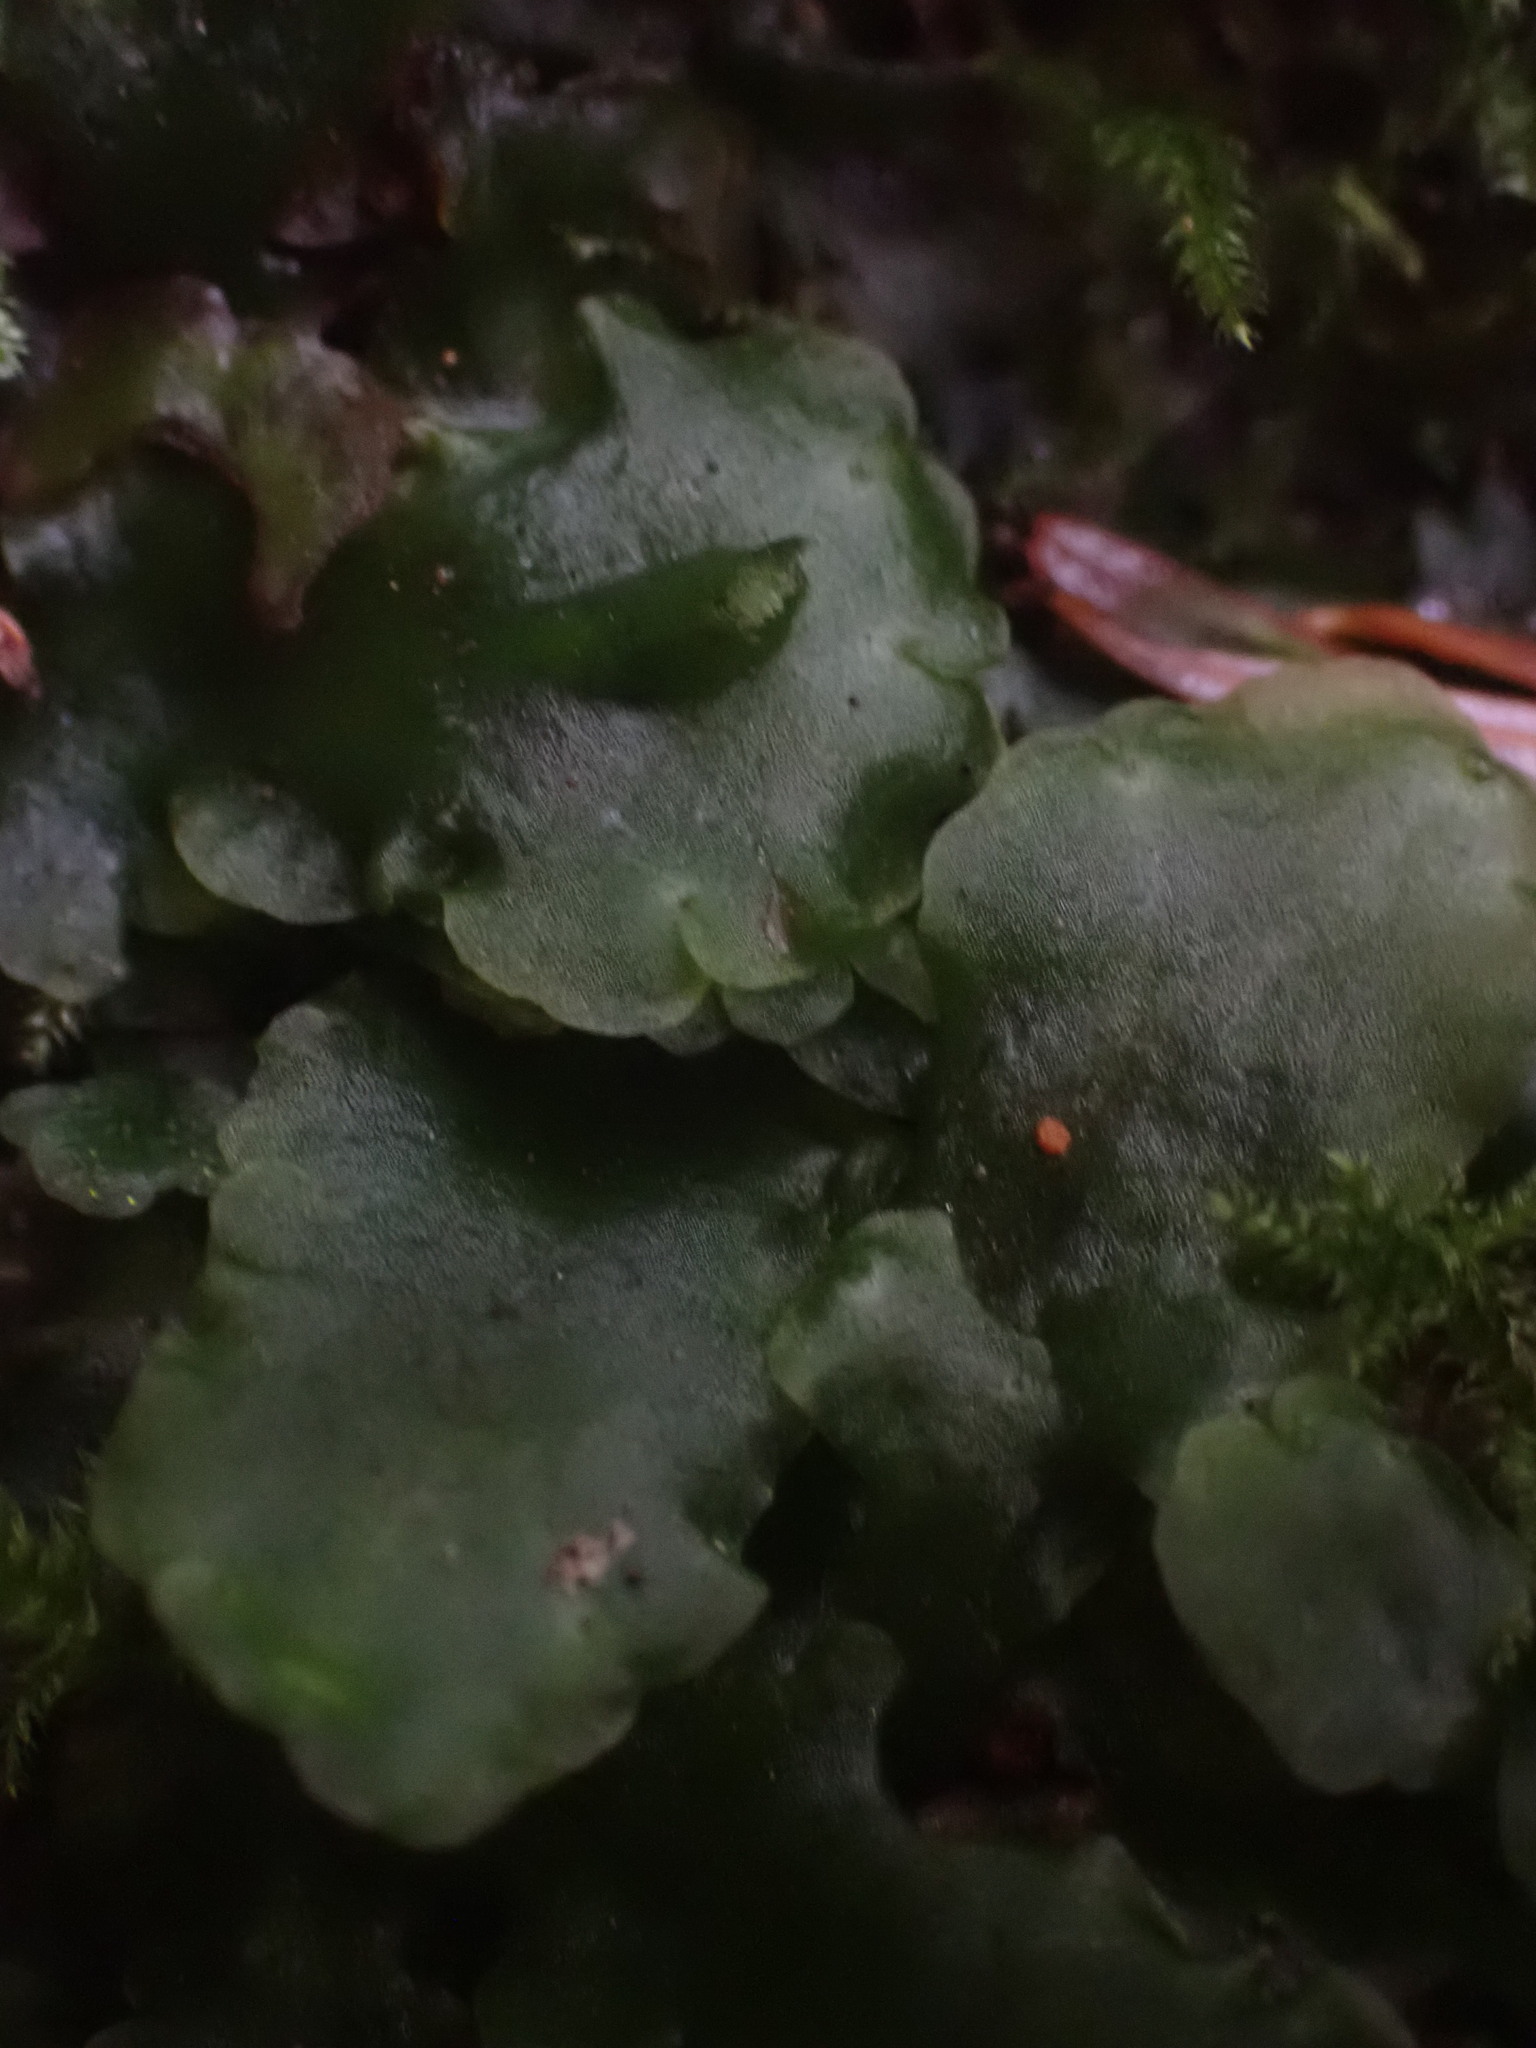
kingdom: Plantae
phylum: Marchantiophyta
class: Jungermanniopsida
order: Pelliales
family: Pelliaceae
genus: Pellia
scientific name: Pellia neesiana
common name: Nees  pellia
